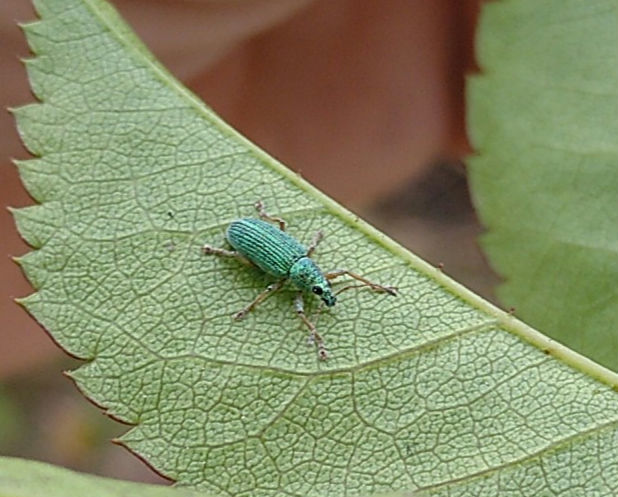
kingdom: Animalia
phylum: Arthropoda
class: Insecta
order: Coleoptera
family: Curculionidae
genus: Polydrusus
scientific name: Polydrusus formosus
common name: Weevil
